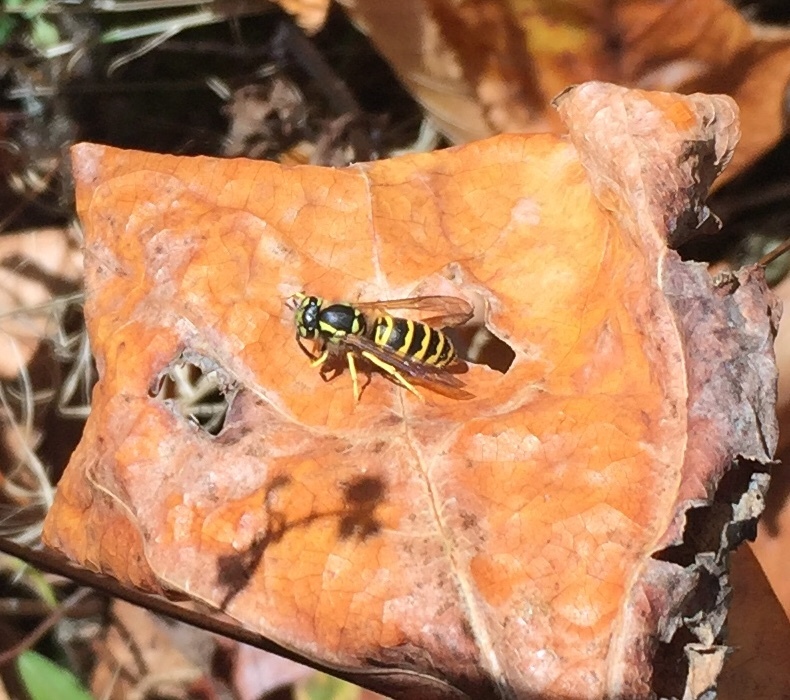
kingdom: Animalia
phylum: Arthropoda
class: Insecta
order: Hymenoptera
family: Vespidae
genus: Vespula
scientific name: Vespula maculifrons
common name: Eastern yellowjacket
